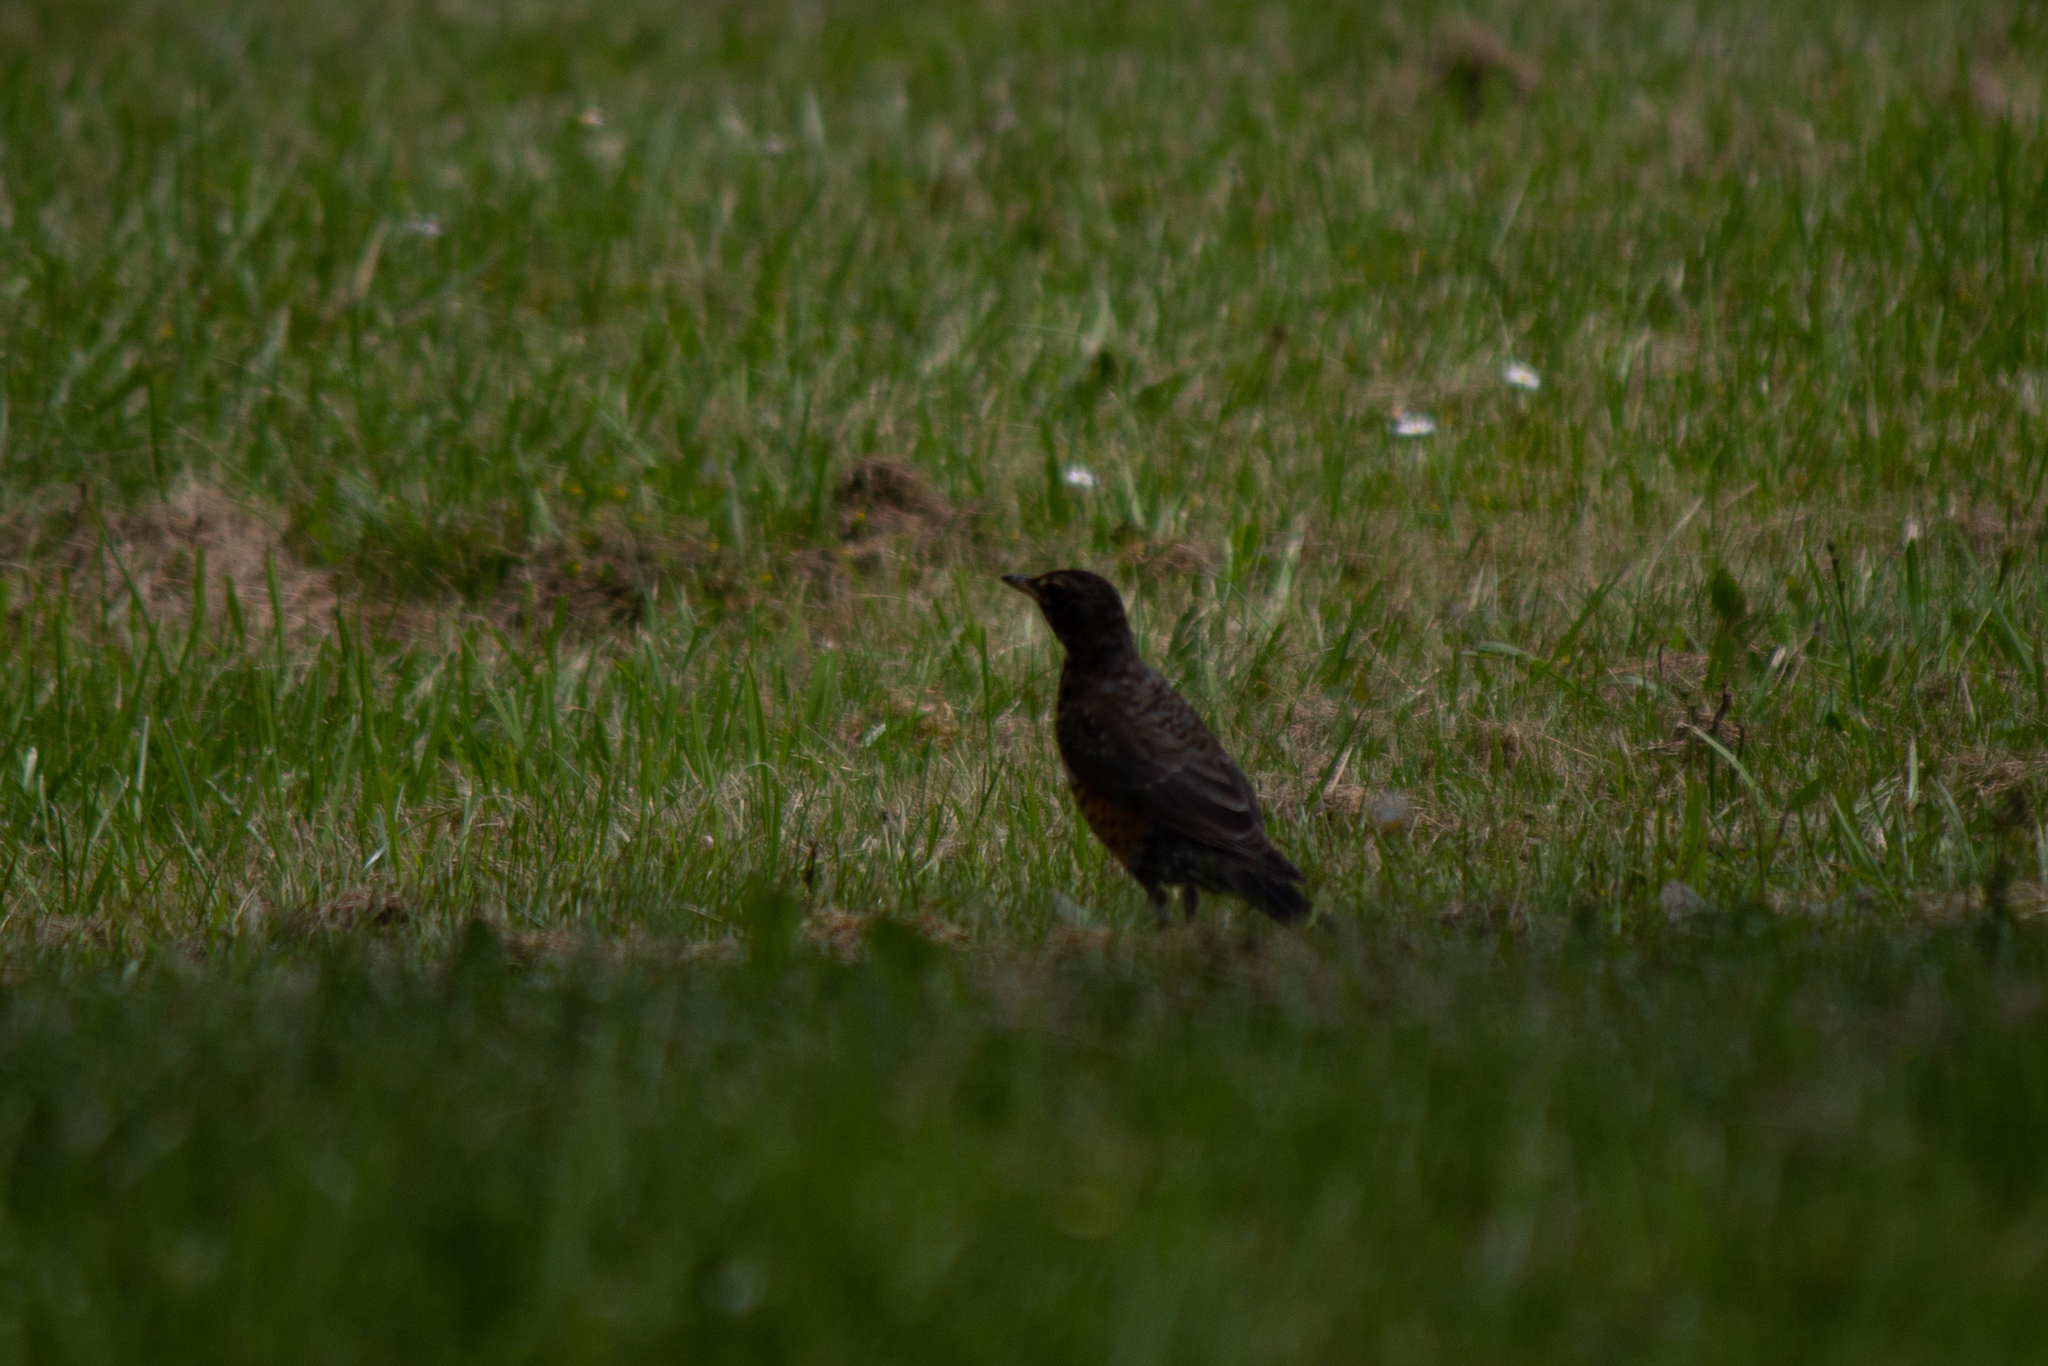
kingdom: Animalia
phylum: Chordata
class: Aves
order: Passeriformes
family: Turdidae
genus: Turdus
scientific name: Turdus migratorius
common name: American robin
